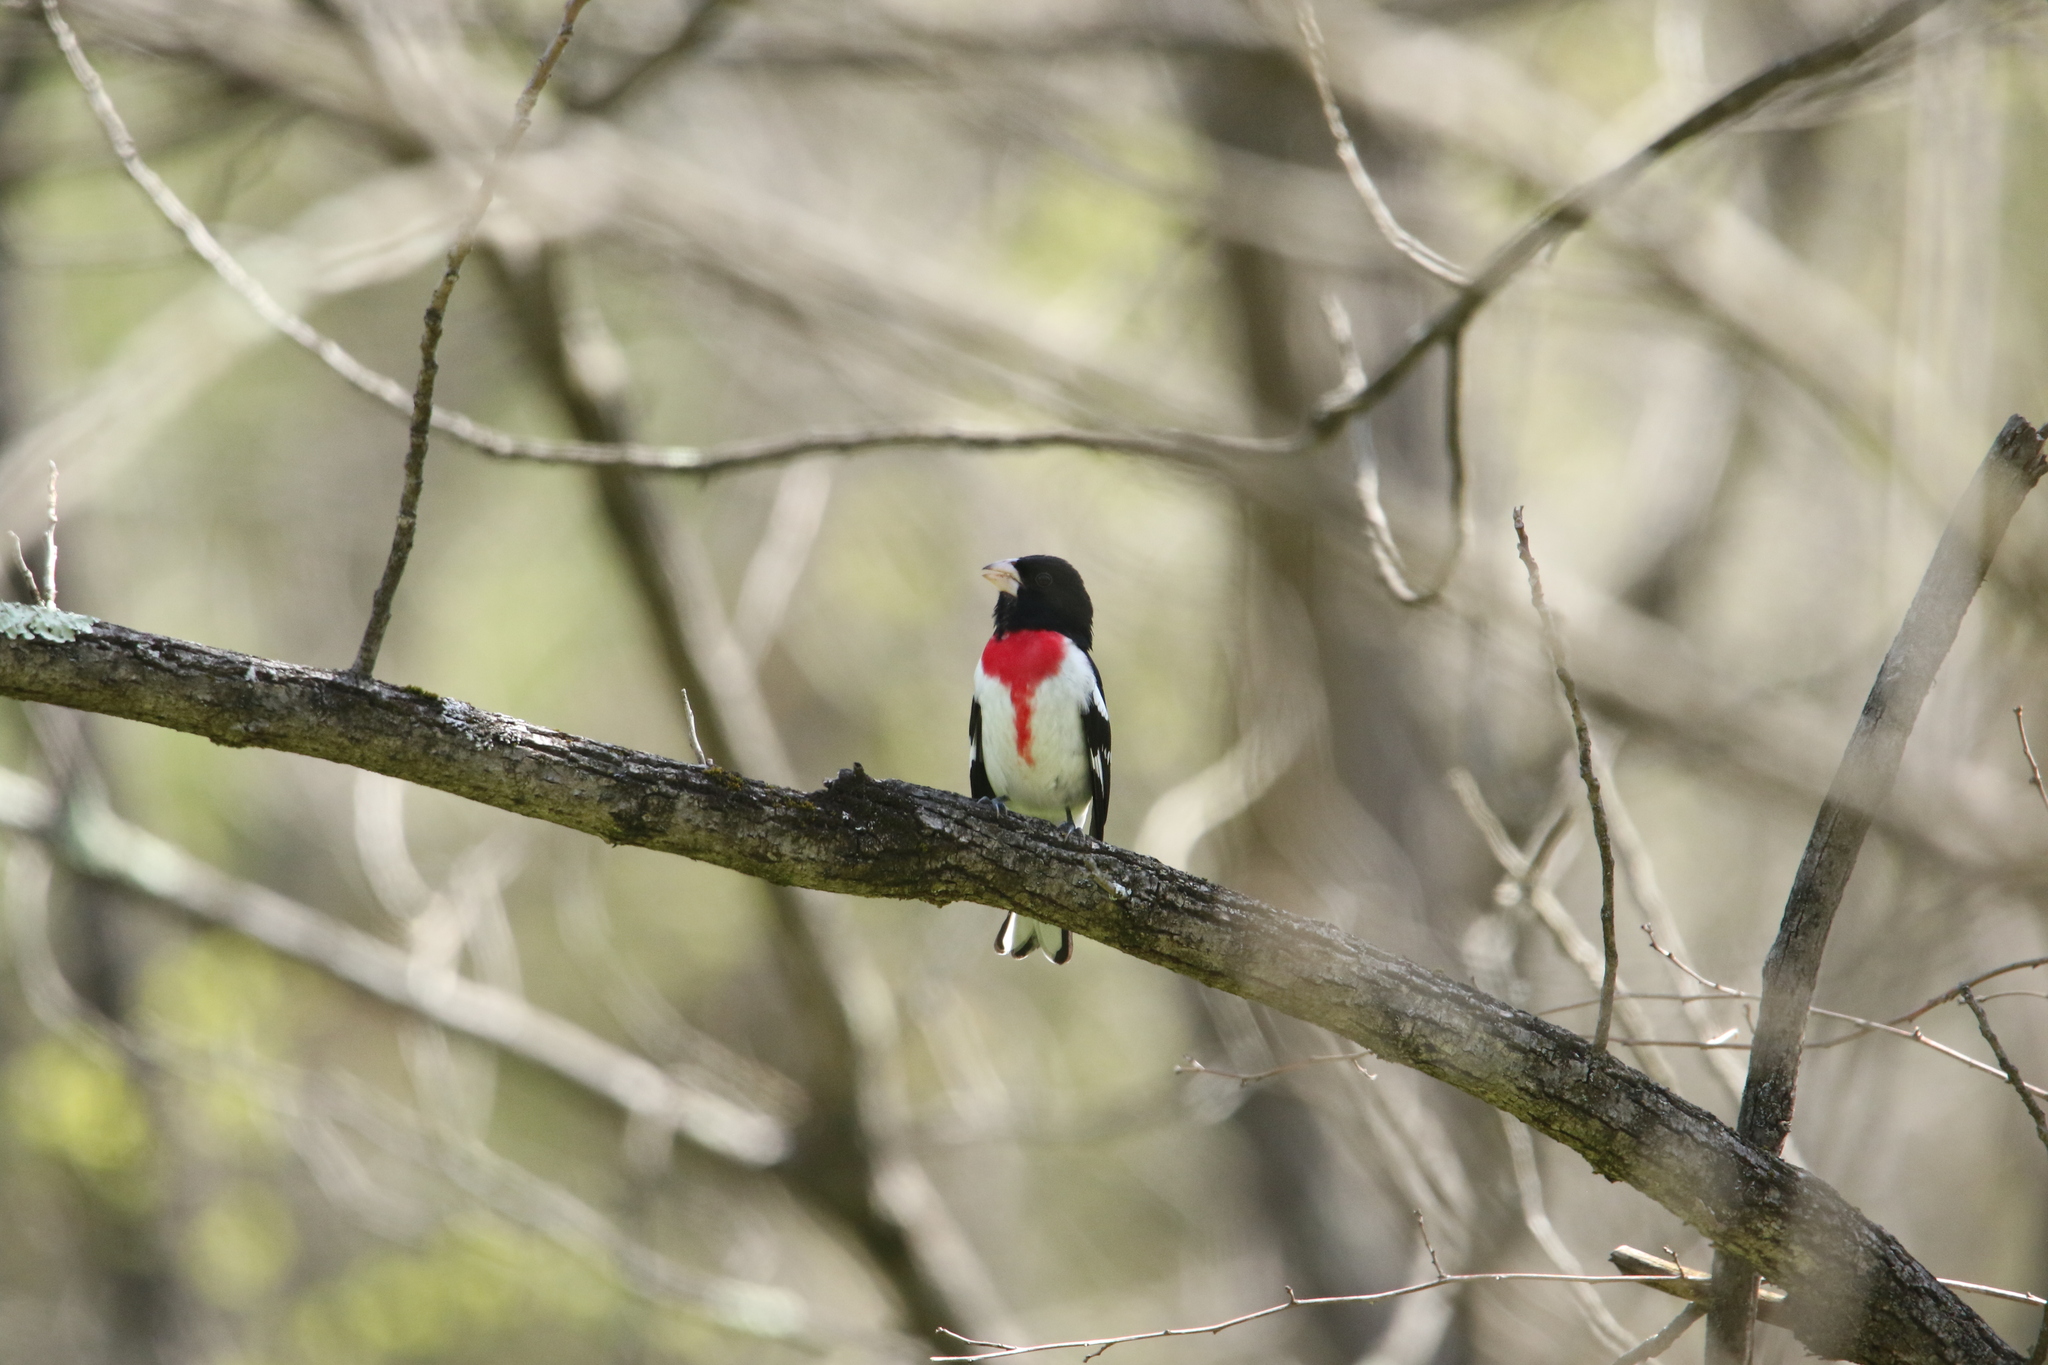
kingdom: Animalia
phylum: Chordata
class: Aves
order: Passeriformes
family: Cardinalidae
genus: Pheucticus
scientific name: Pheucticus ludovicianus
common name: Rose-breasted grosbeak
